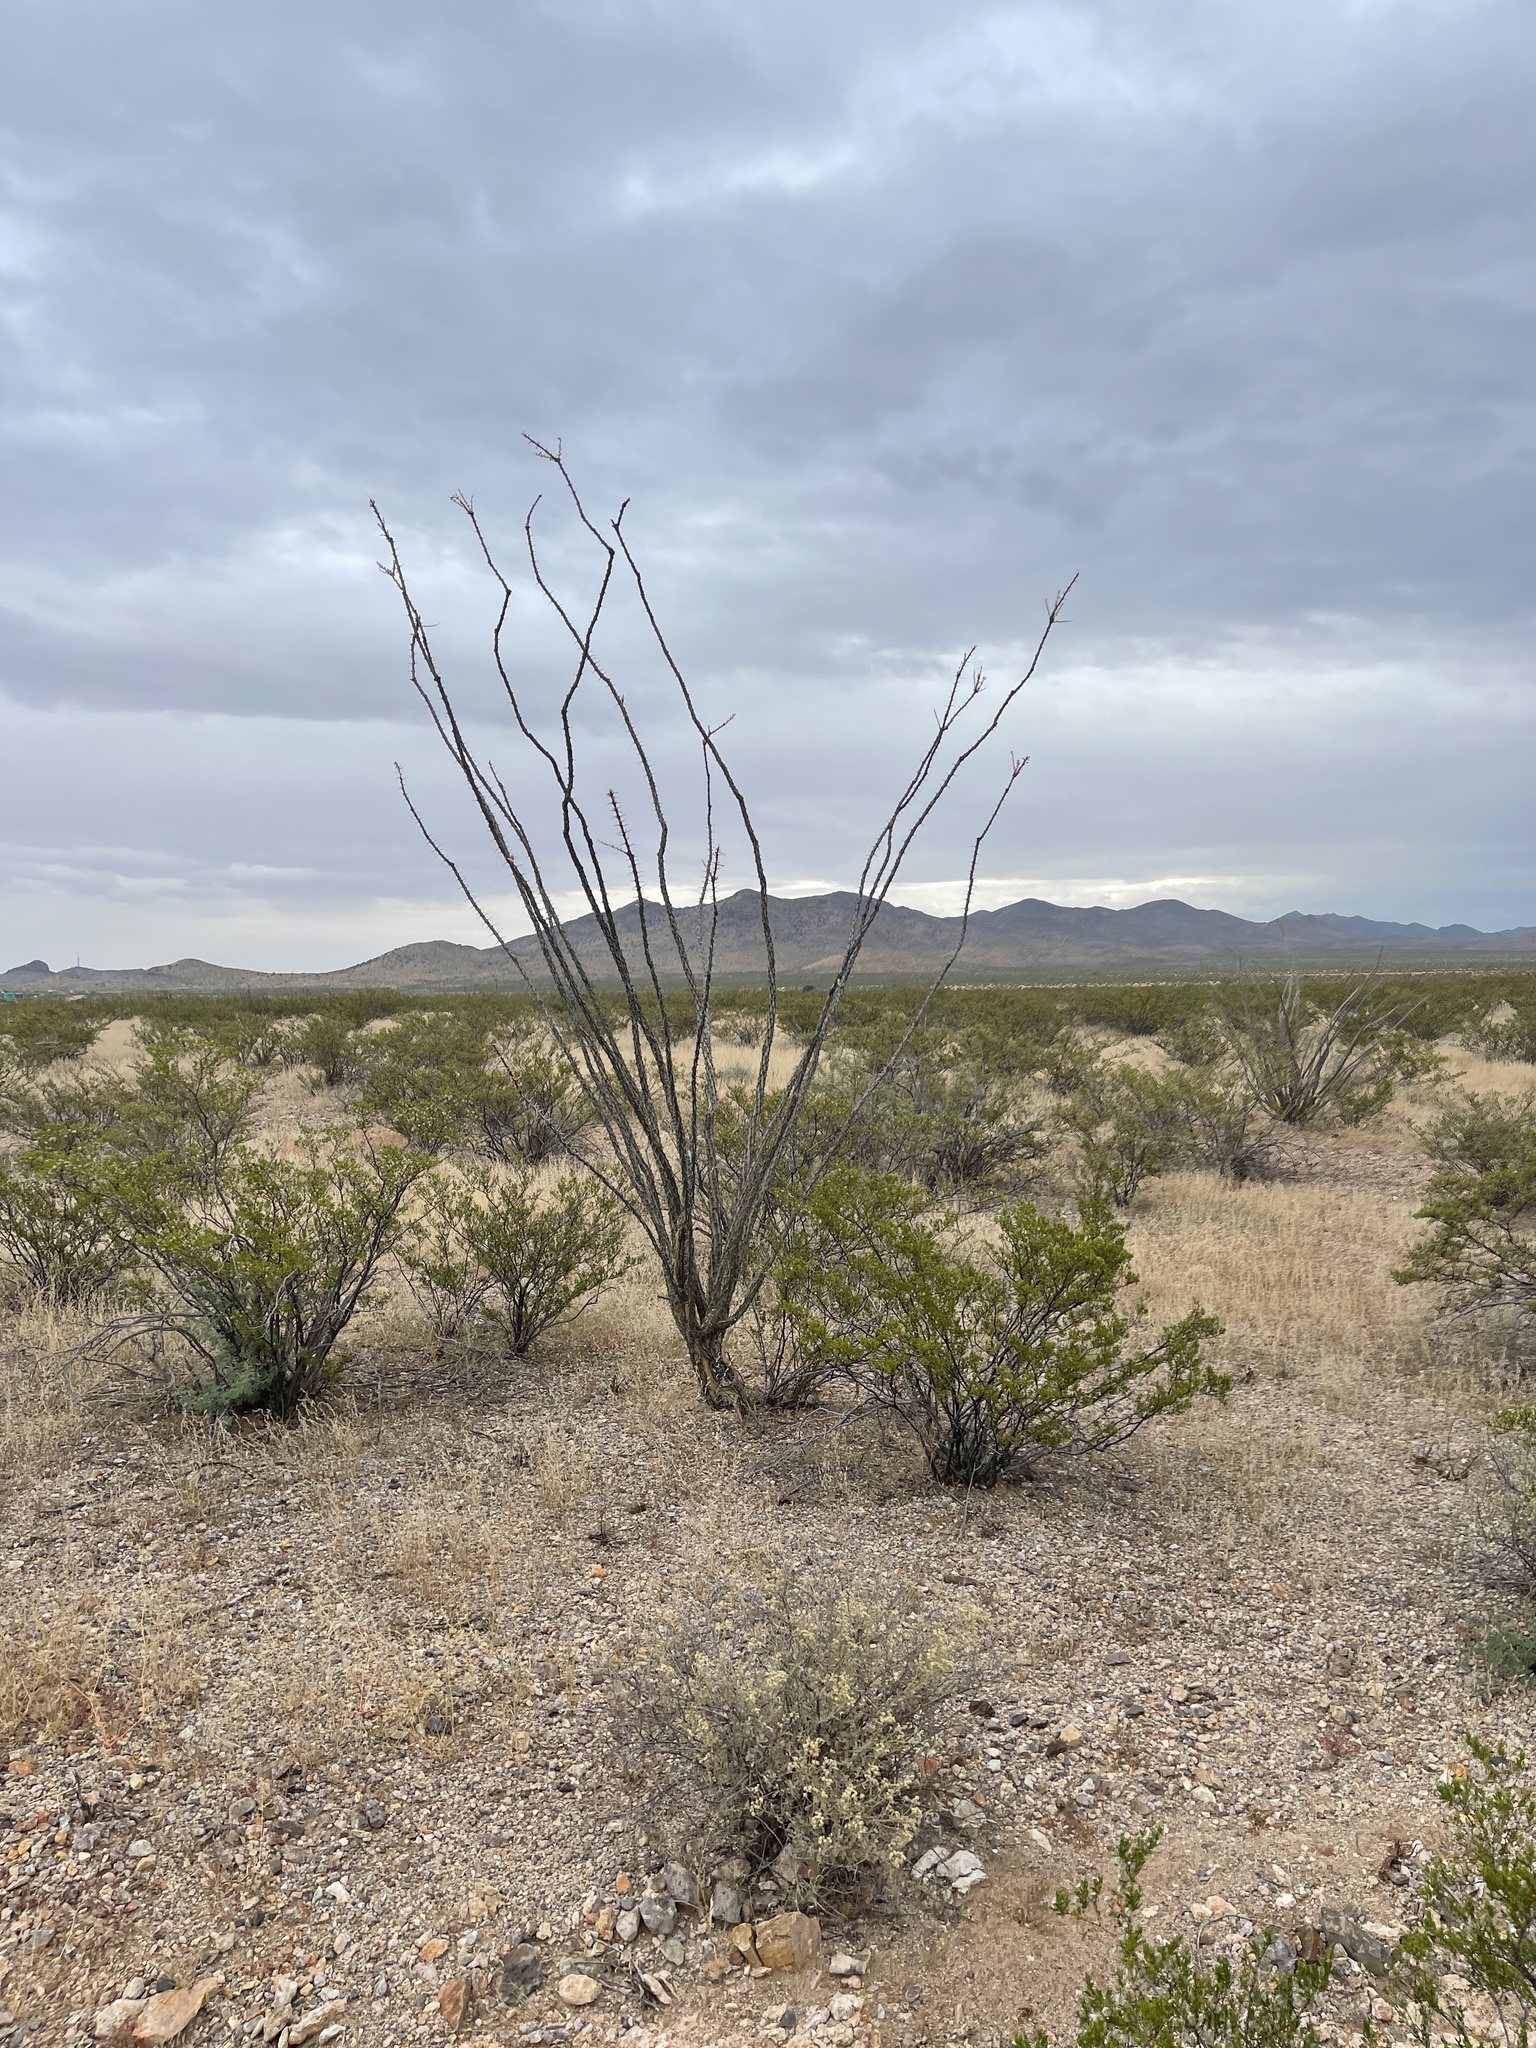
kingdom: Plantae
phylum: Tracheophyta
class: Magnoliopsida
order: Ericales
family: Fouquieriaceae
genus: Fouquieria
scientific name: Fouquieria splendens
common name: Vine-cactus
